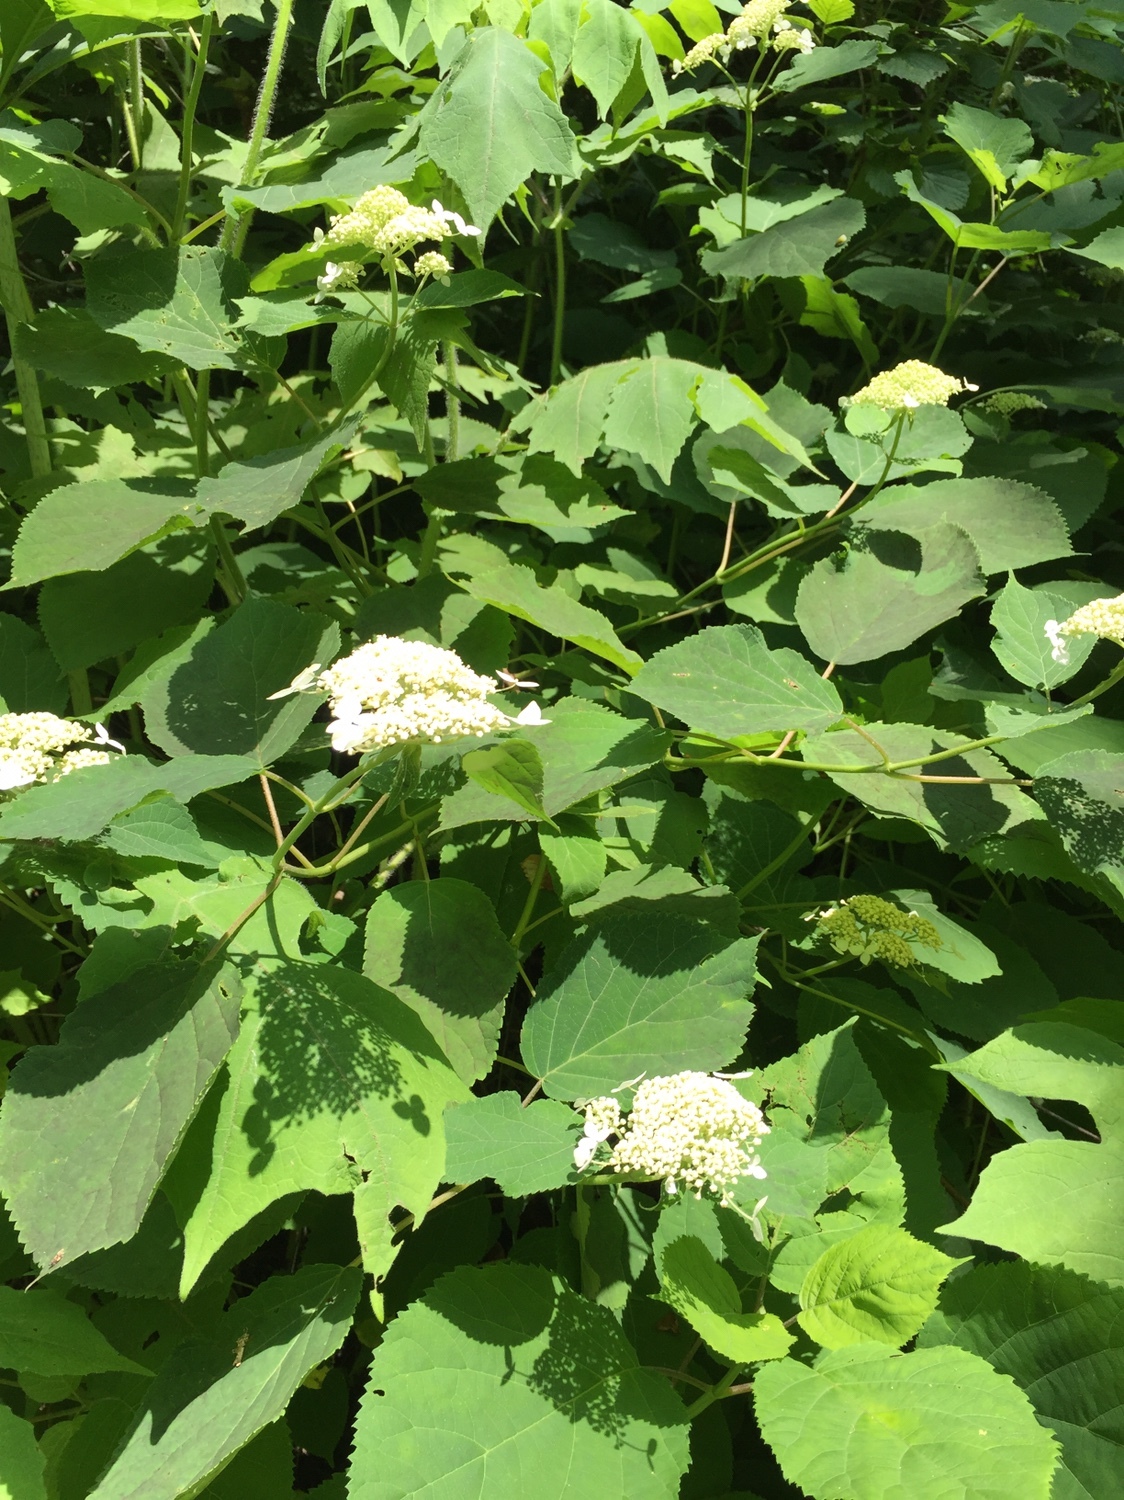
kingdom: Plantae
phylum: Tracheophyta
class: Magnoliopsida
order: Cornales
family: Hydrangeaceae
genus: Hydrangea
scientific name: Hydrangea arborescens
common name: Sevenbark
